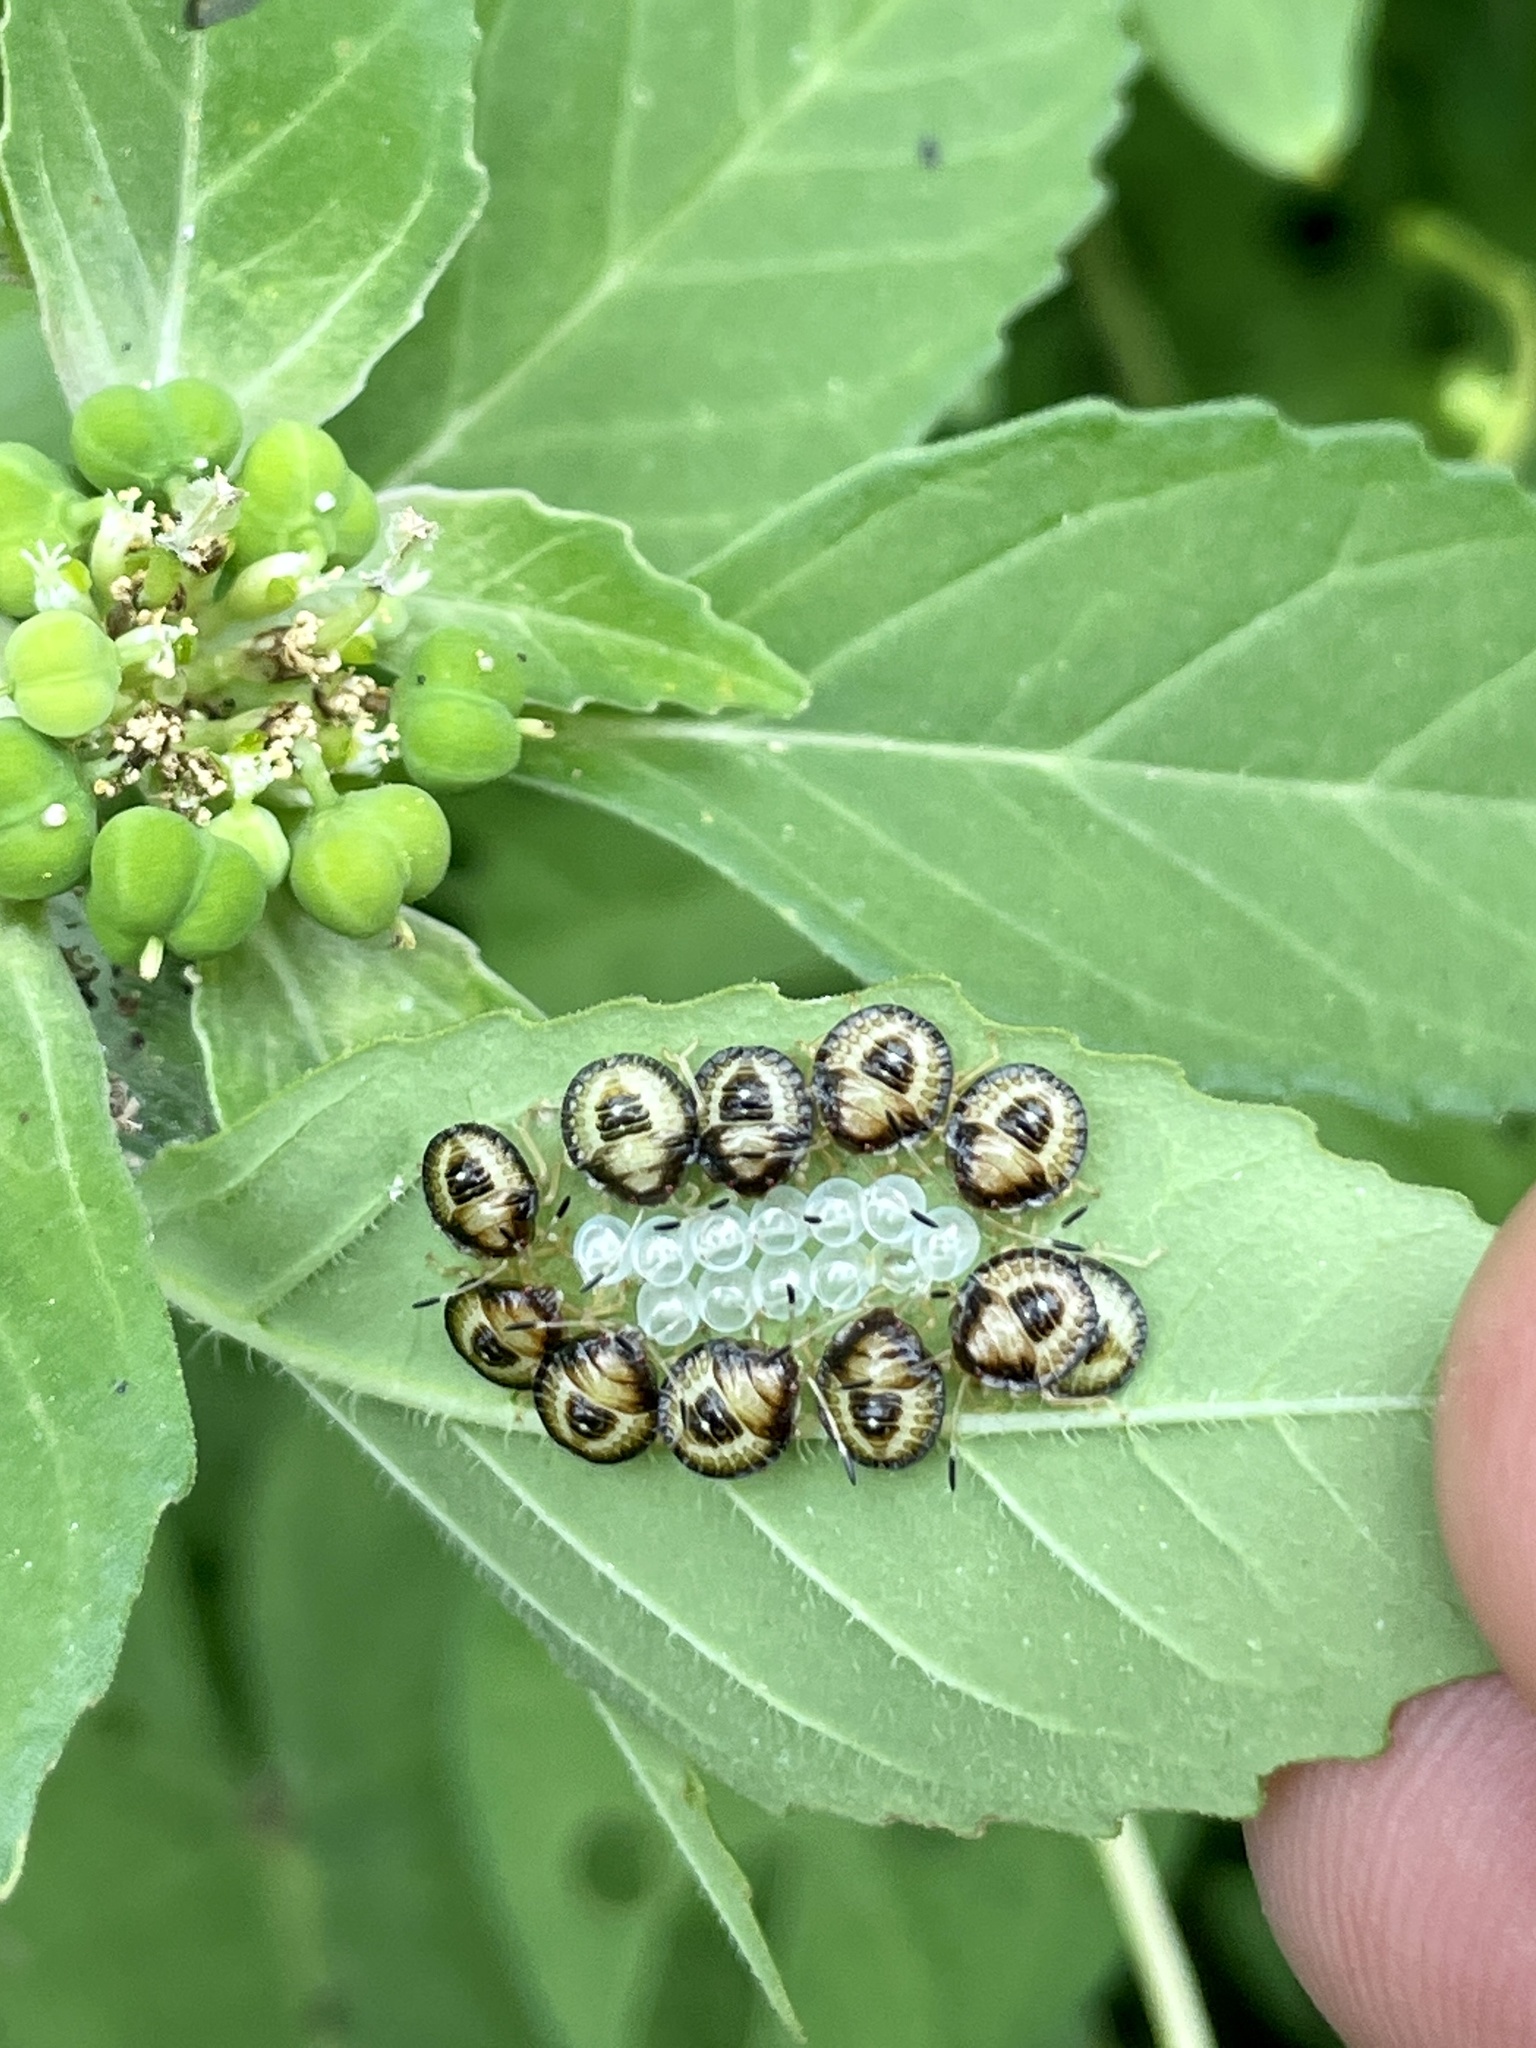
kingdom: Animalia
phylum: Arthropoda
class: Insecta
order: Hemiptera
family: Pentatomidae
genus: Edessa
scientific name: Edessa bifida
